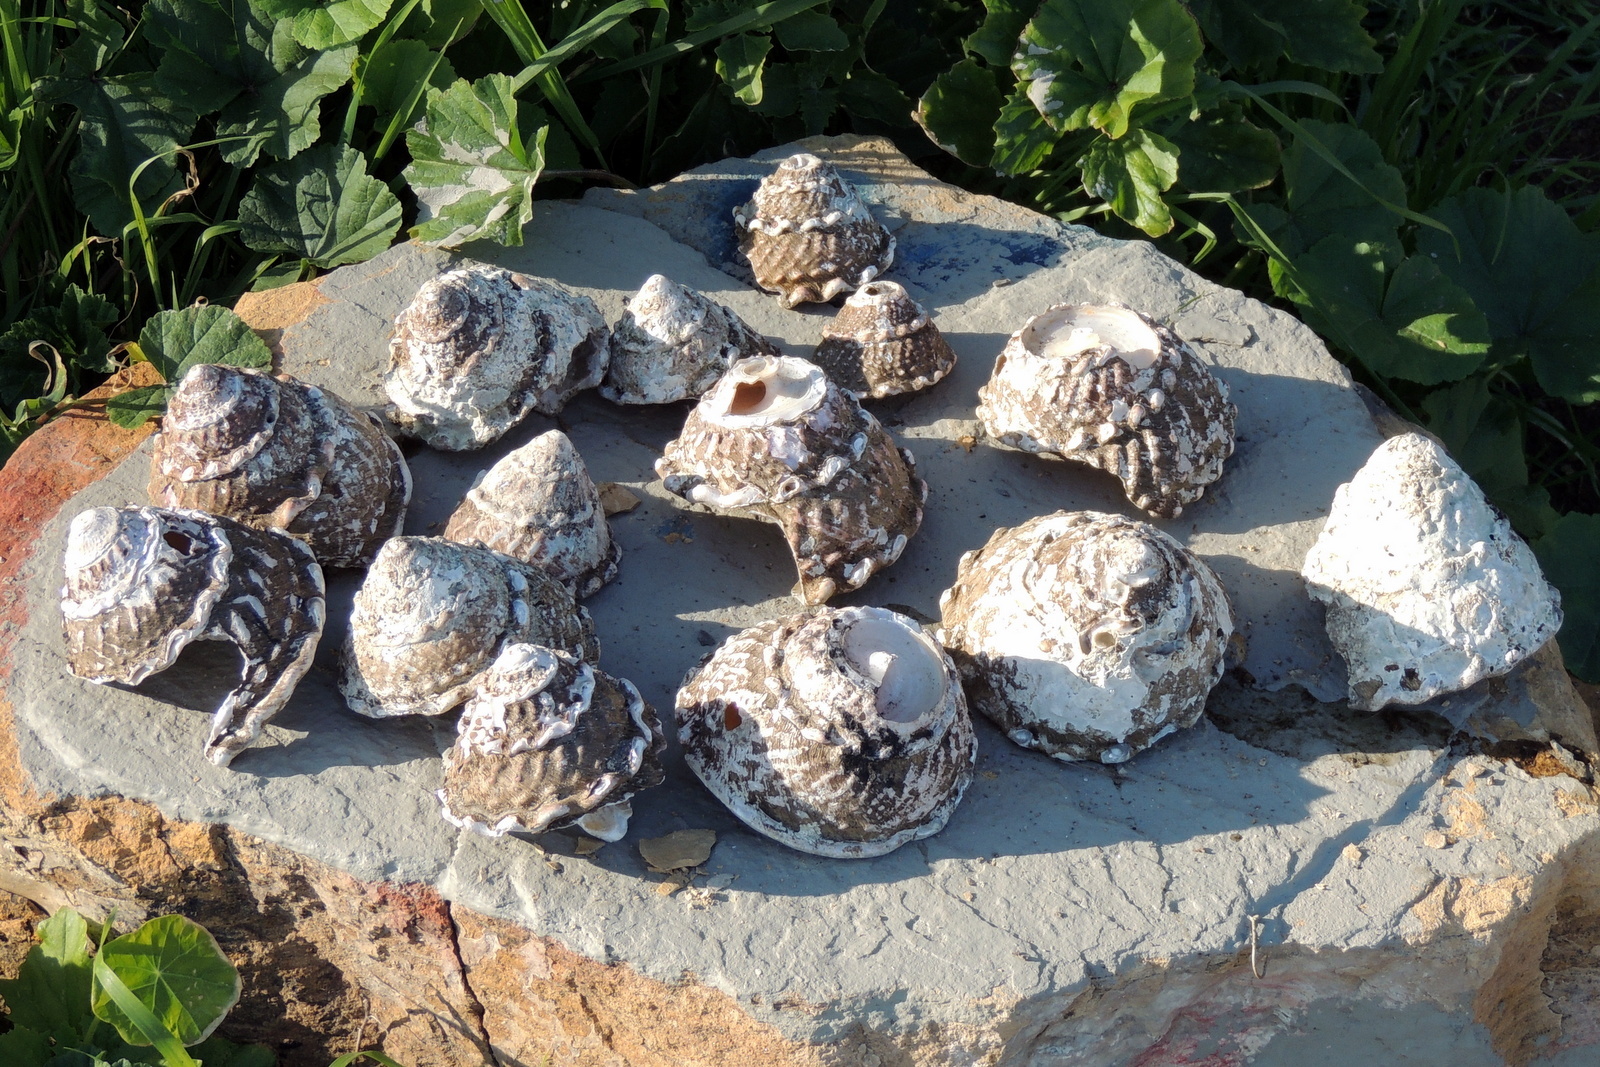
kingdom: Animalia
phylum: Mollusca
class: Gastropoda
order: Trochida
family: Turbinidae
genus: Megastraea
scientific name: Megastraea undosa
